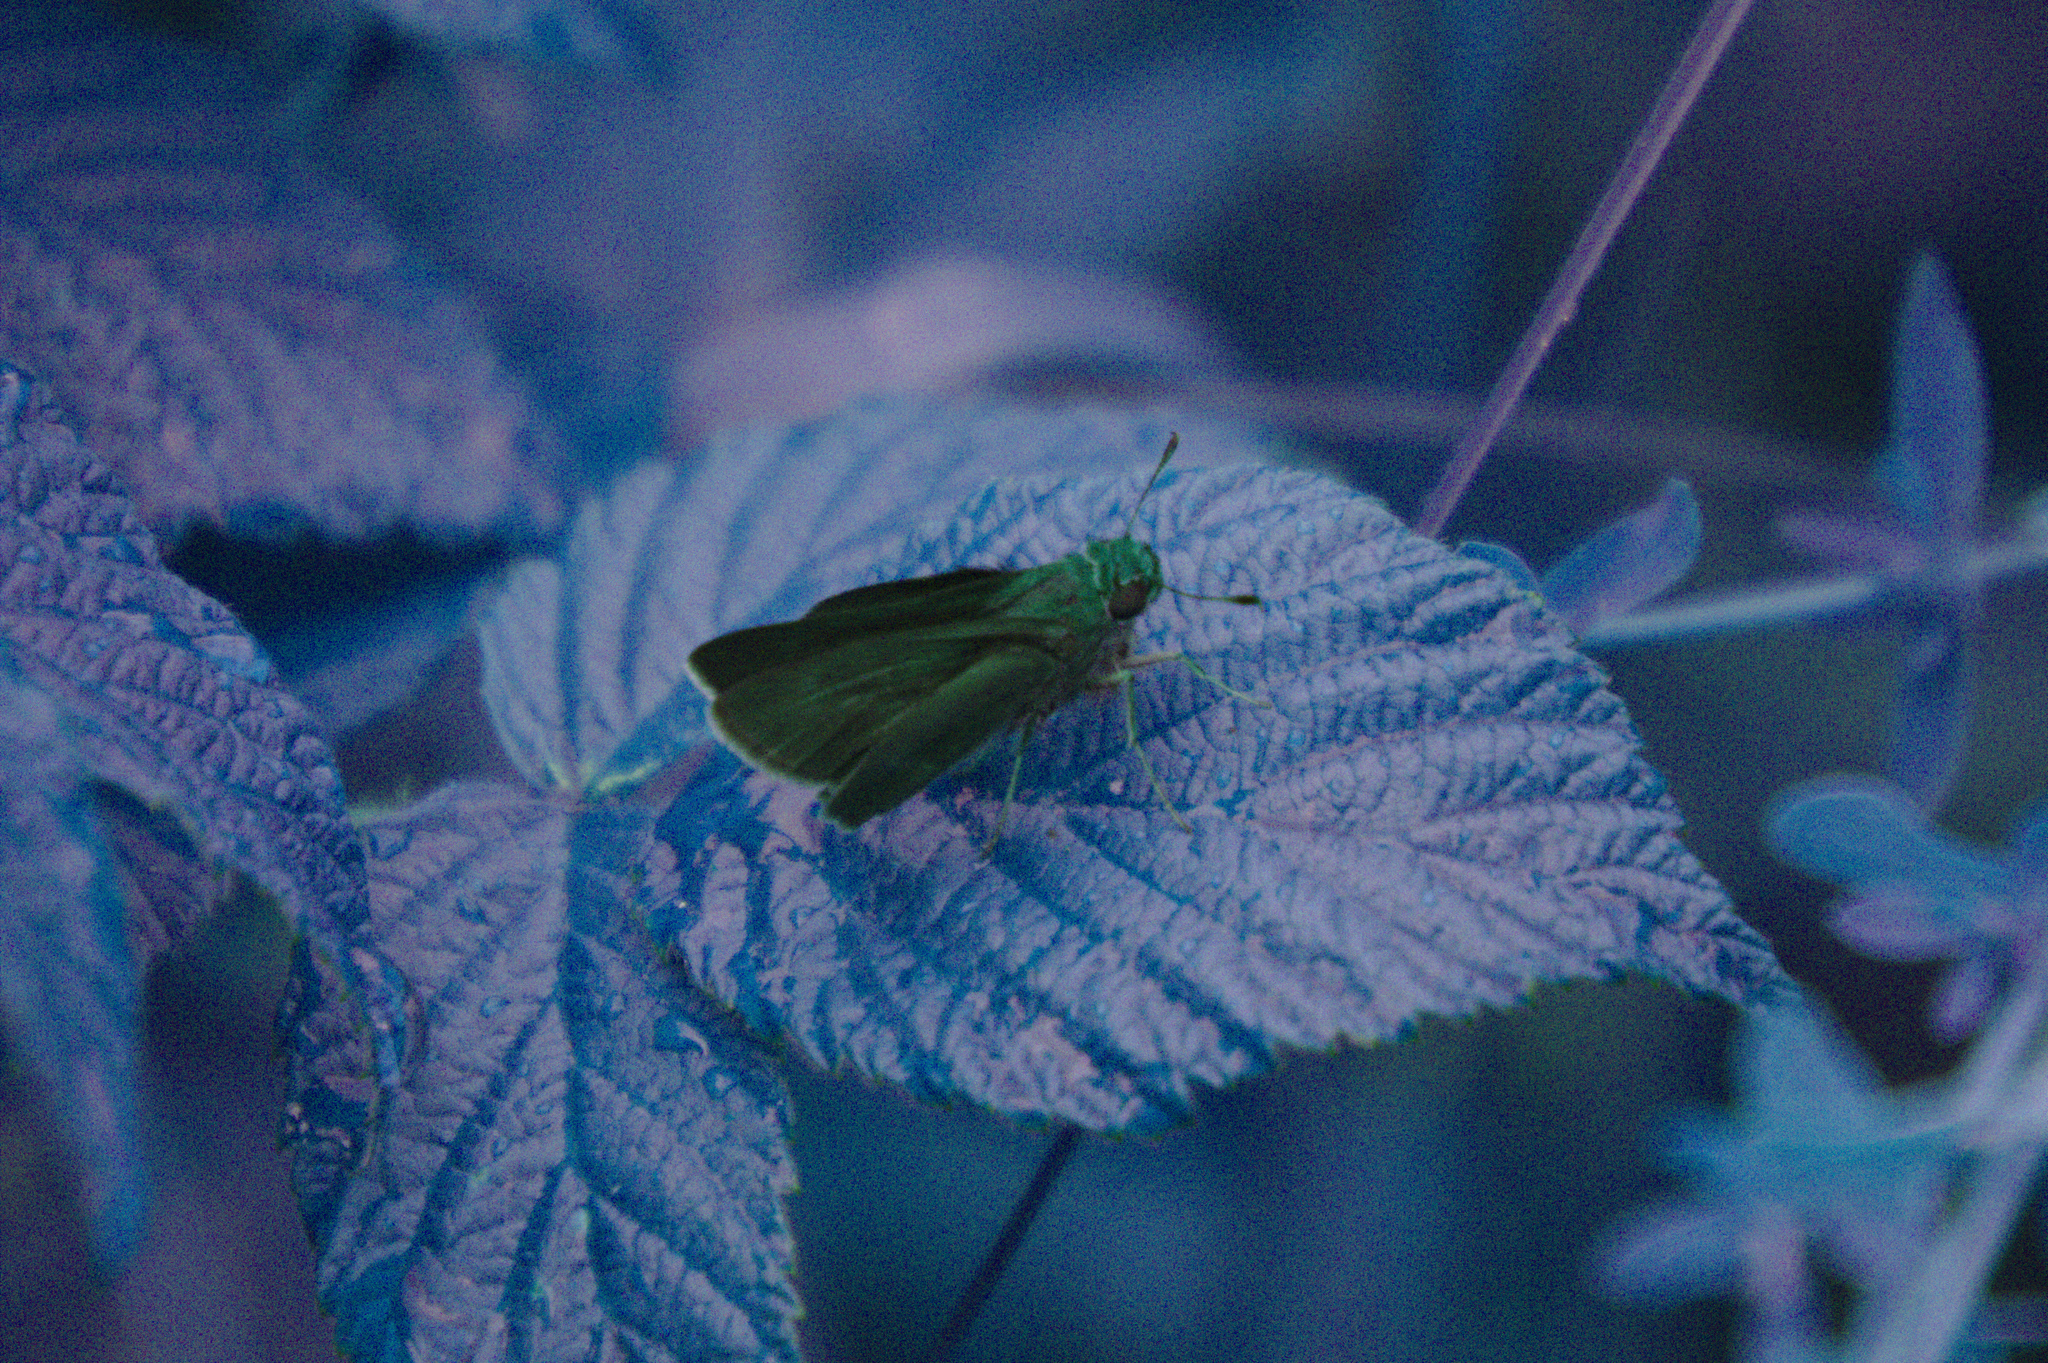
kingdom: Animalia
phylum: Arthropoda
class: Insecta
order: Lepidoptera
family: Hesperiidae
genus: Euphyes
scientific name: Euphyes vestris
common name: Dun skipper
